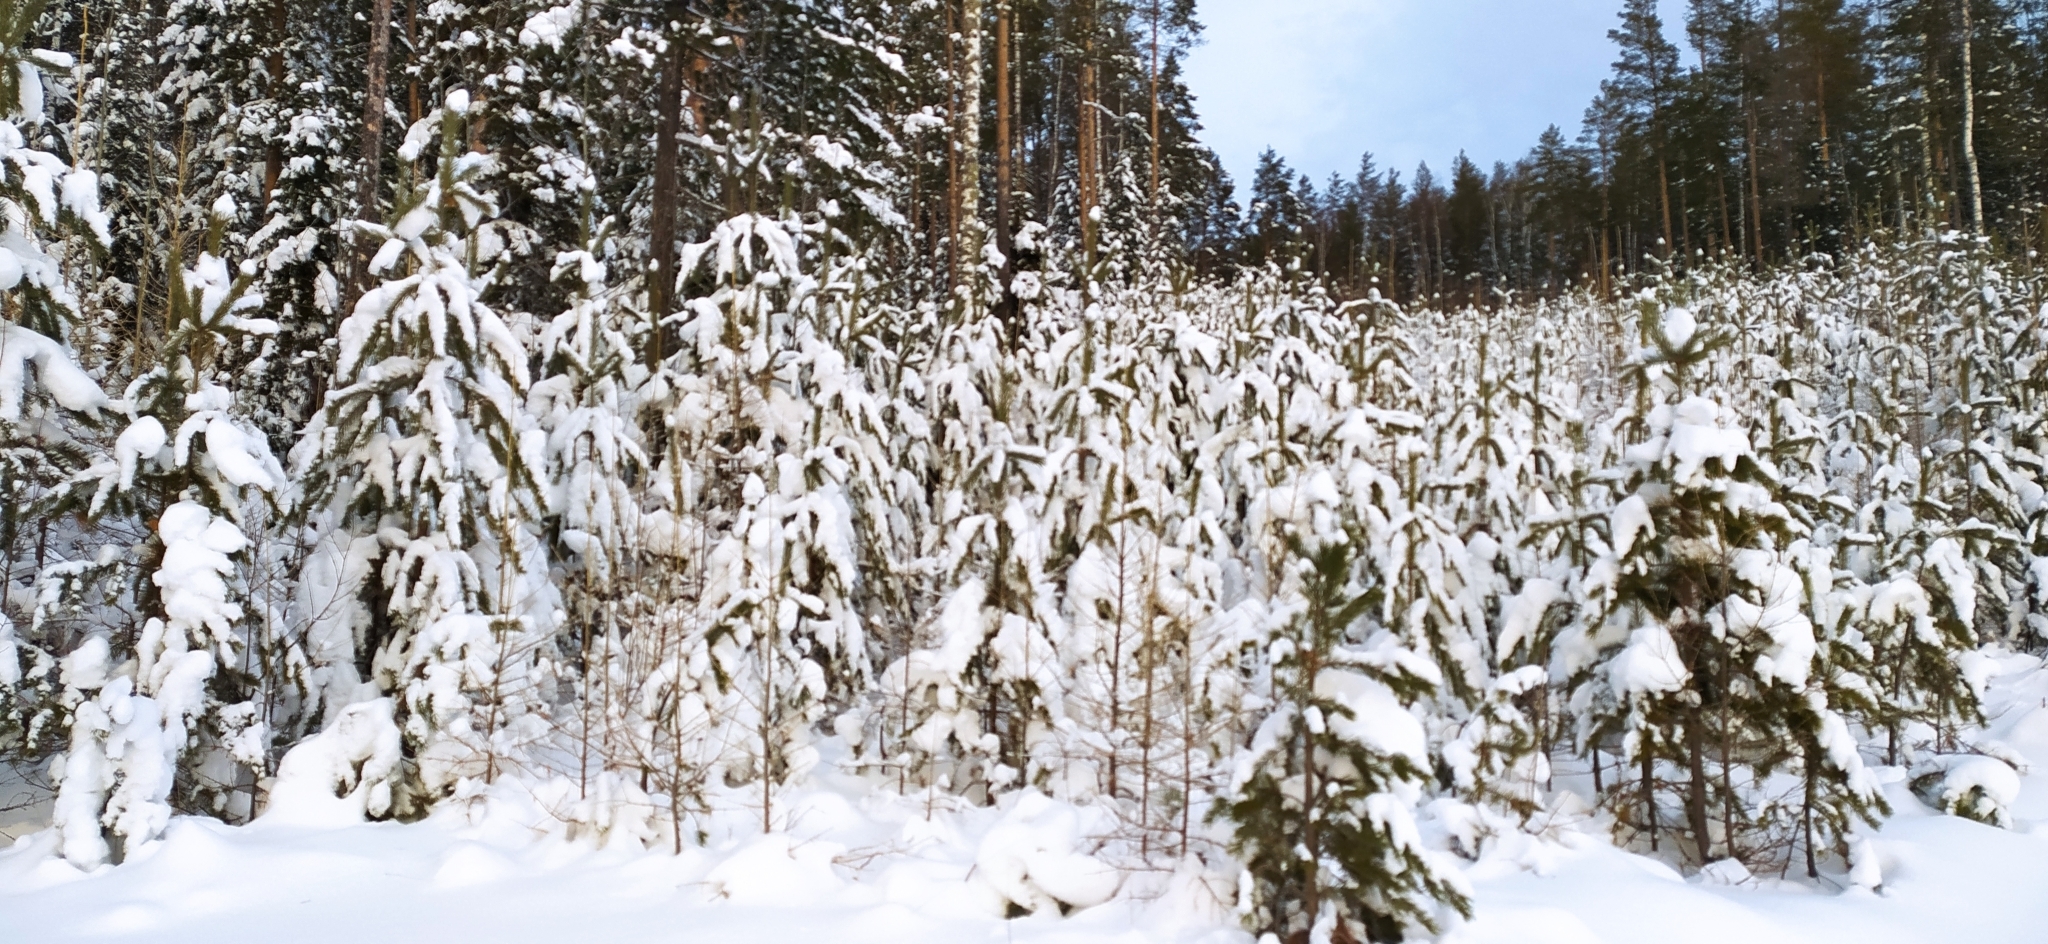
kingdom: Plantae
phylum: Tracheophyta
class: Pinopsida
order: Pinales
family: Pinaceae
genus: Pinus
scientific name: Pinus sylvestris
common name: Scots pine
